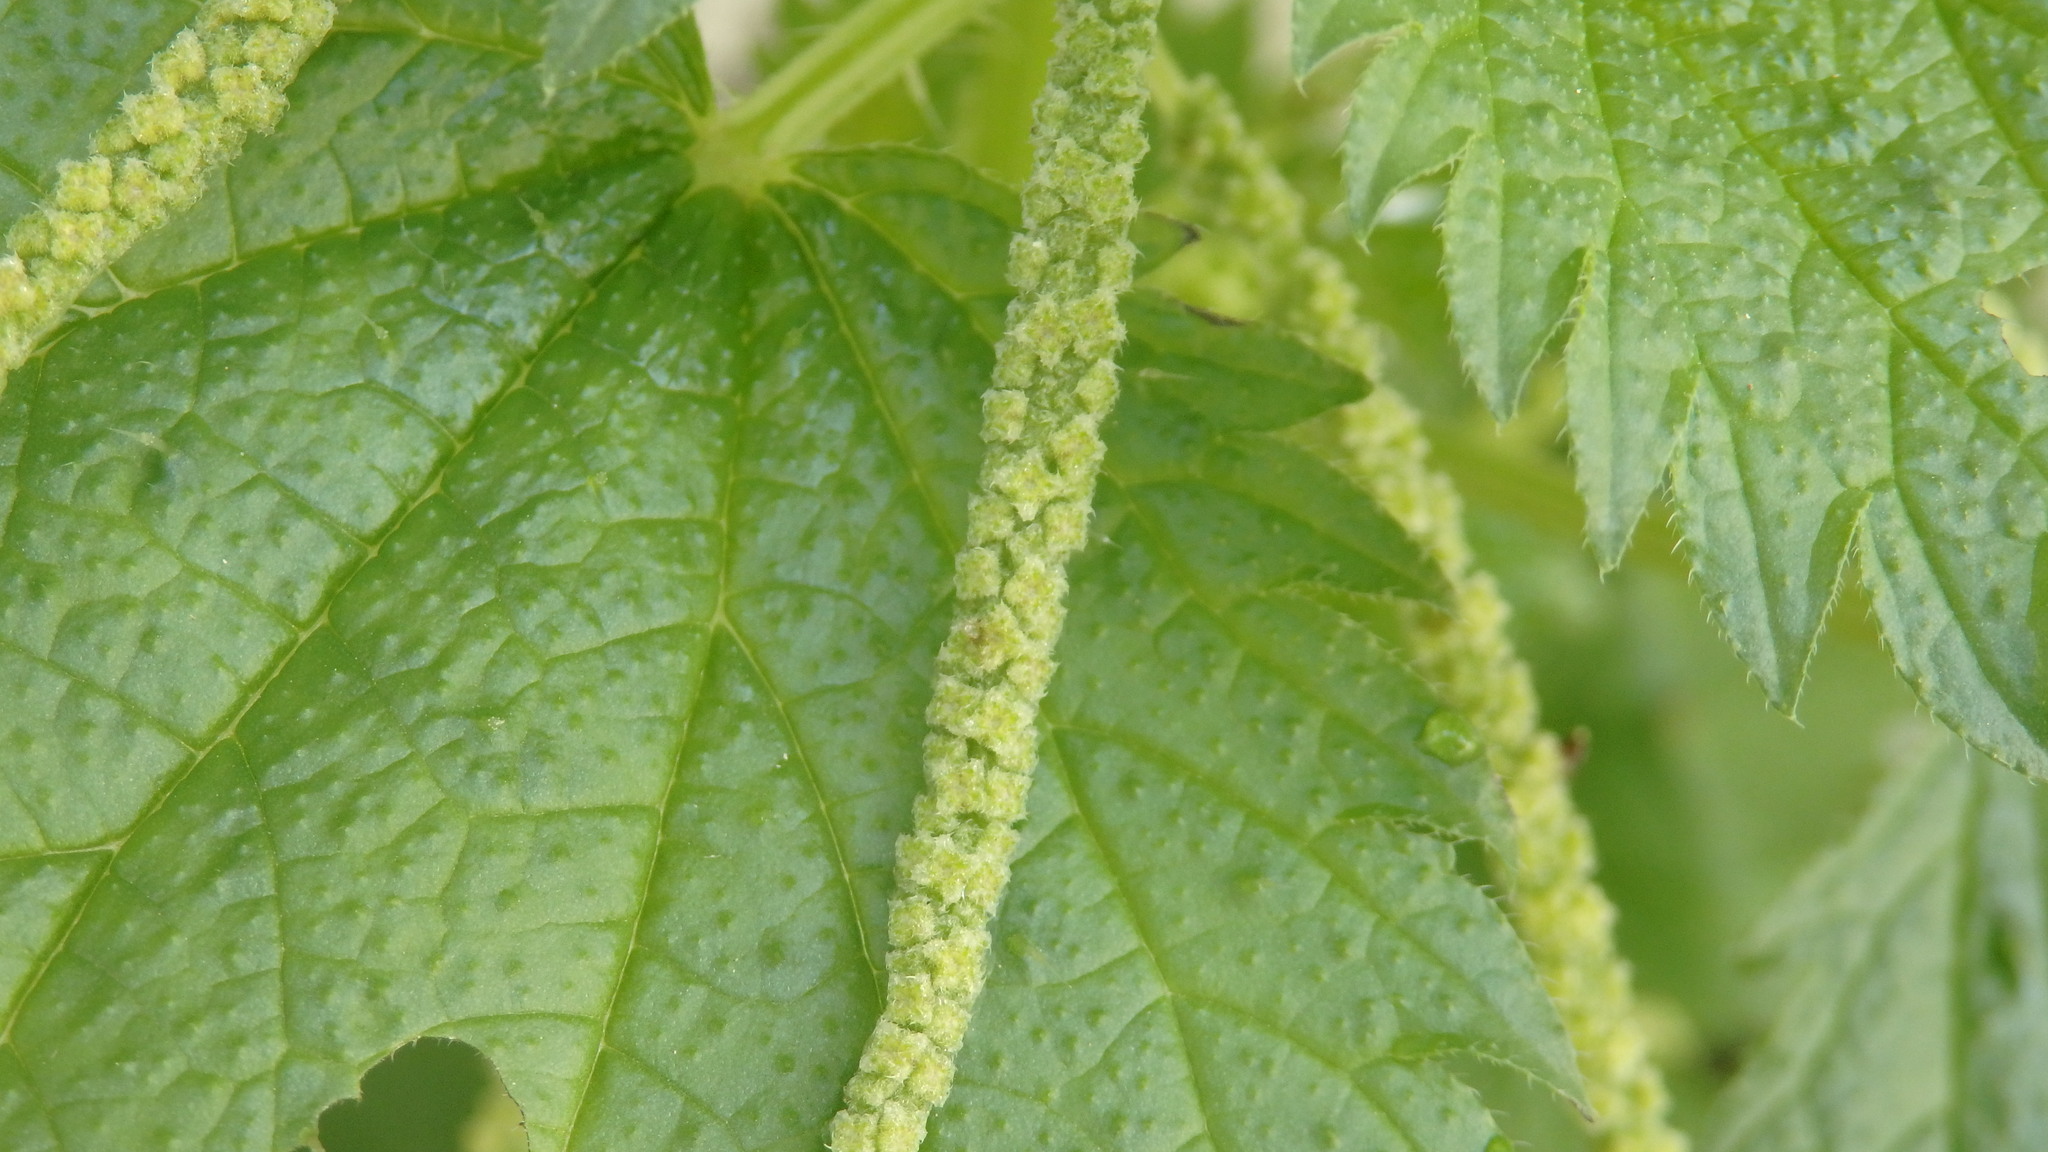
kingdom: Plantae
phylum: Tracheophyta
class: Magnoliopsida
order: Rosales
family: Urticaceae
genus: Urtica
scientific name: Urtica membranacea
